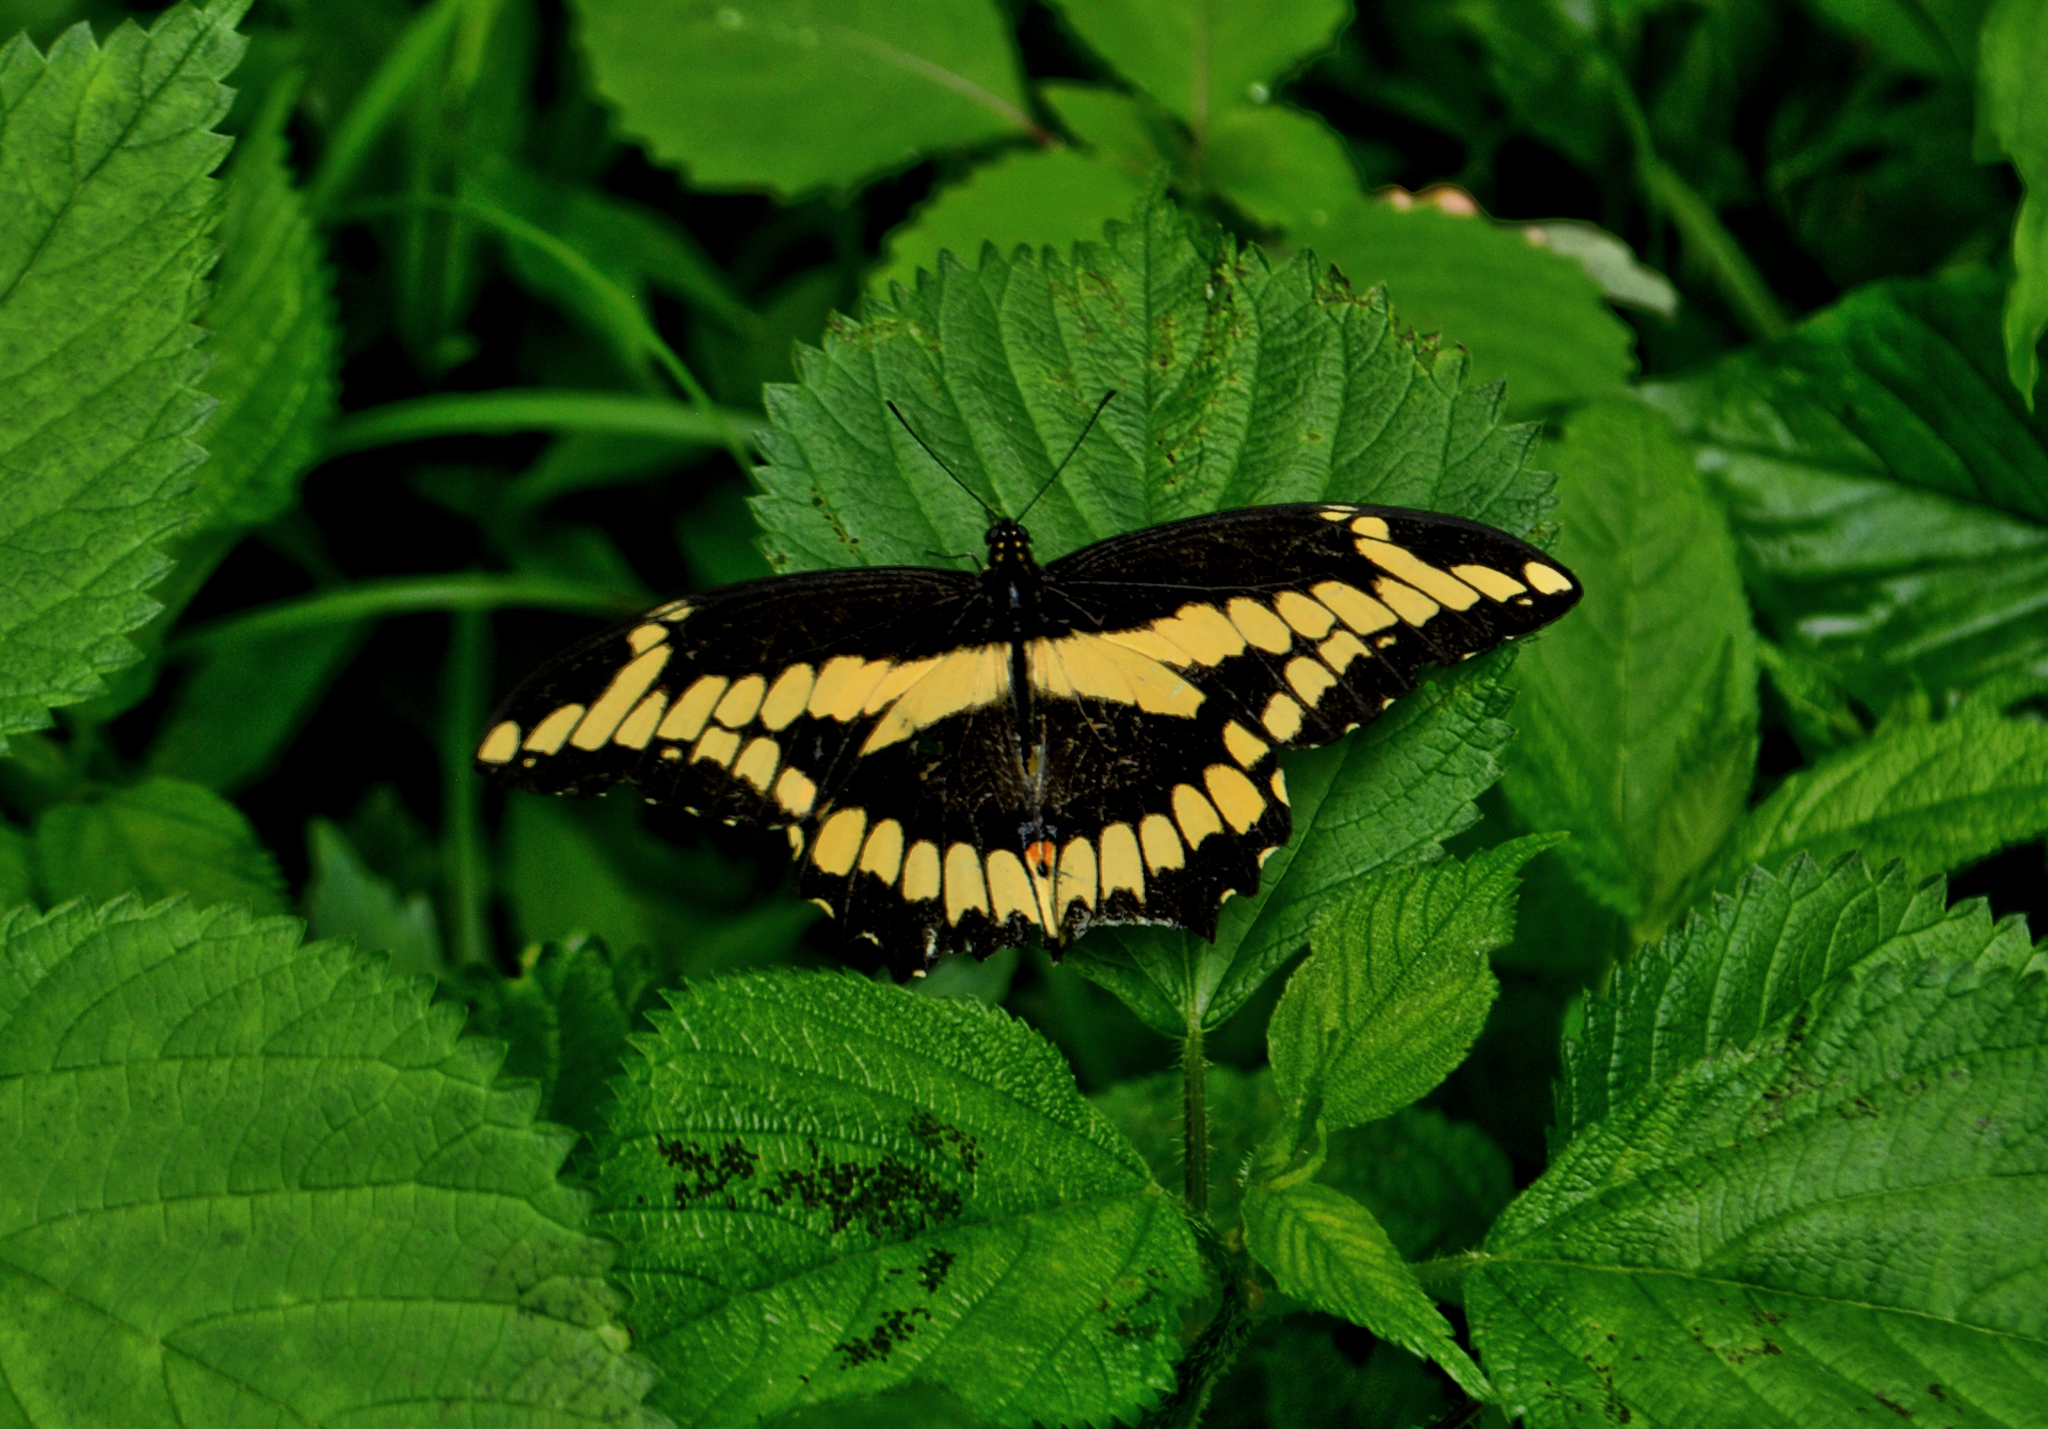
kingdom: Animalia
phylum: Arthropoda
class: Insecta
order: Lepidoptera
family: Papilionidae
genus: Papilio
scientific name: Papilio cresphontes
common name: Giant swallowtail
